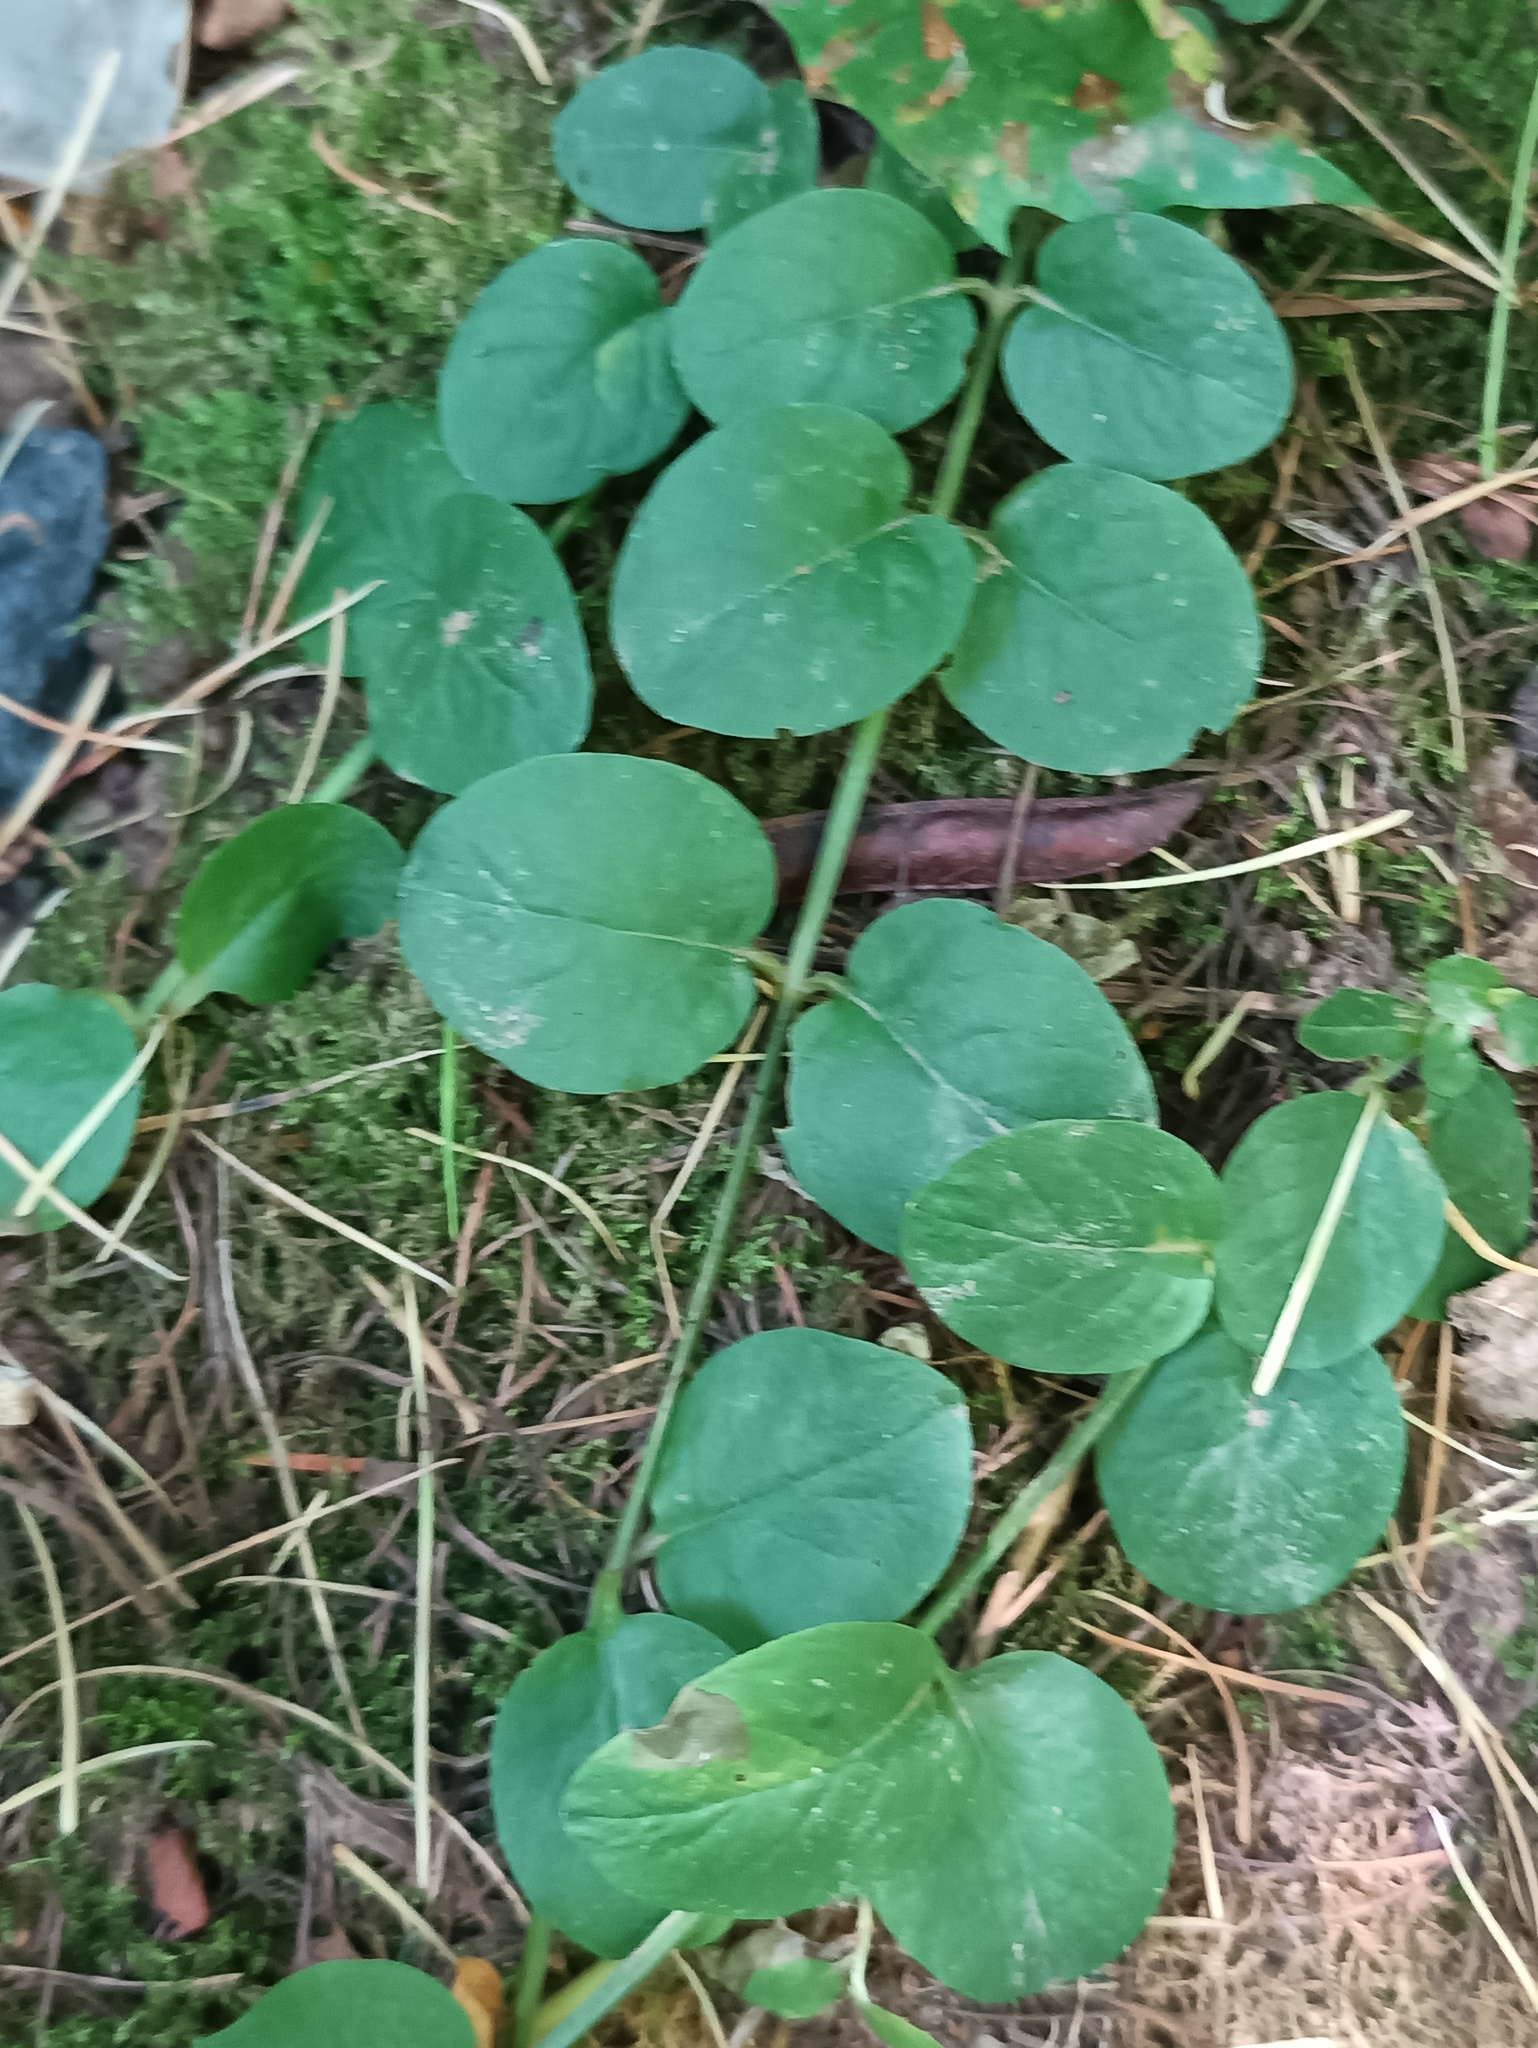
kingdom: Plantae
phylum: Tracheophyta
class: Magnoliopsida
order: Ericales
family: Primulaceae
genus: Lysimachia
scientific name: Lysimachia nummularia
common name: Moneywort
